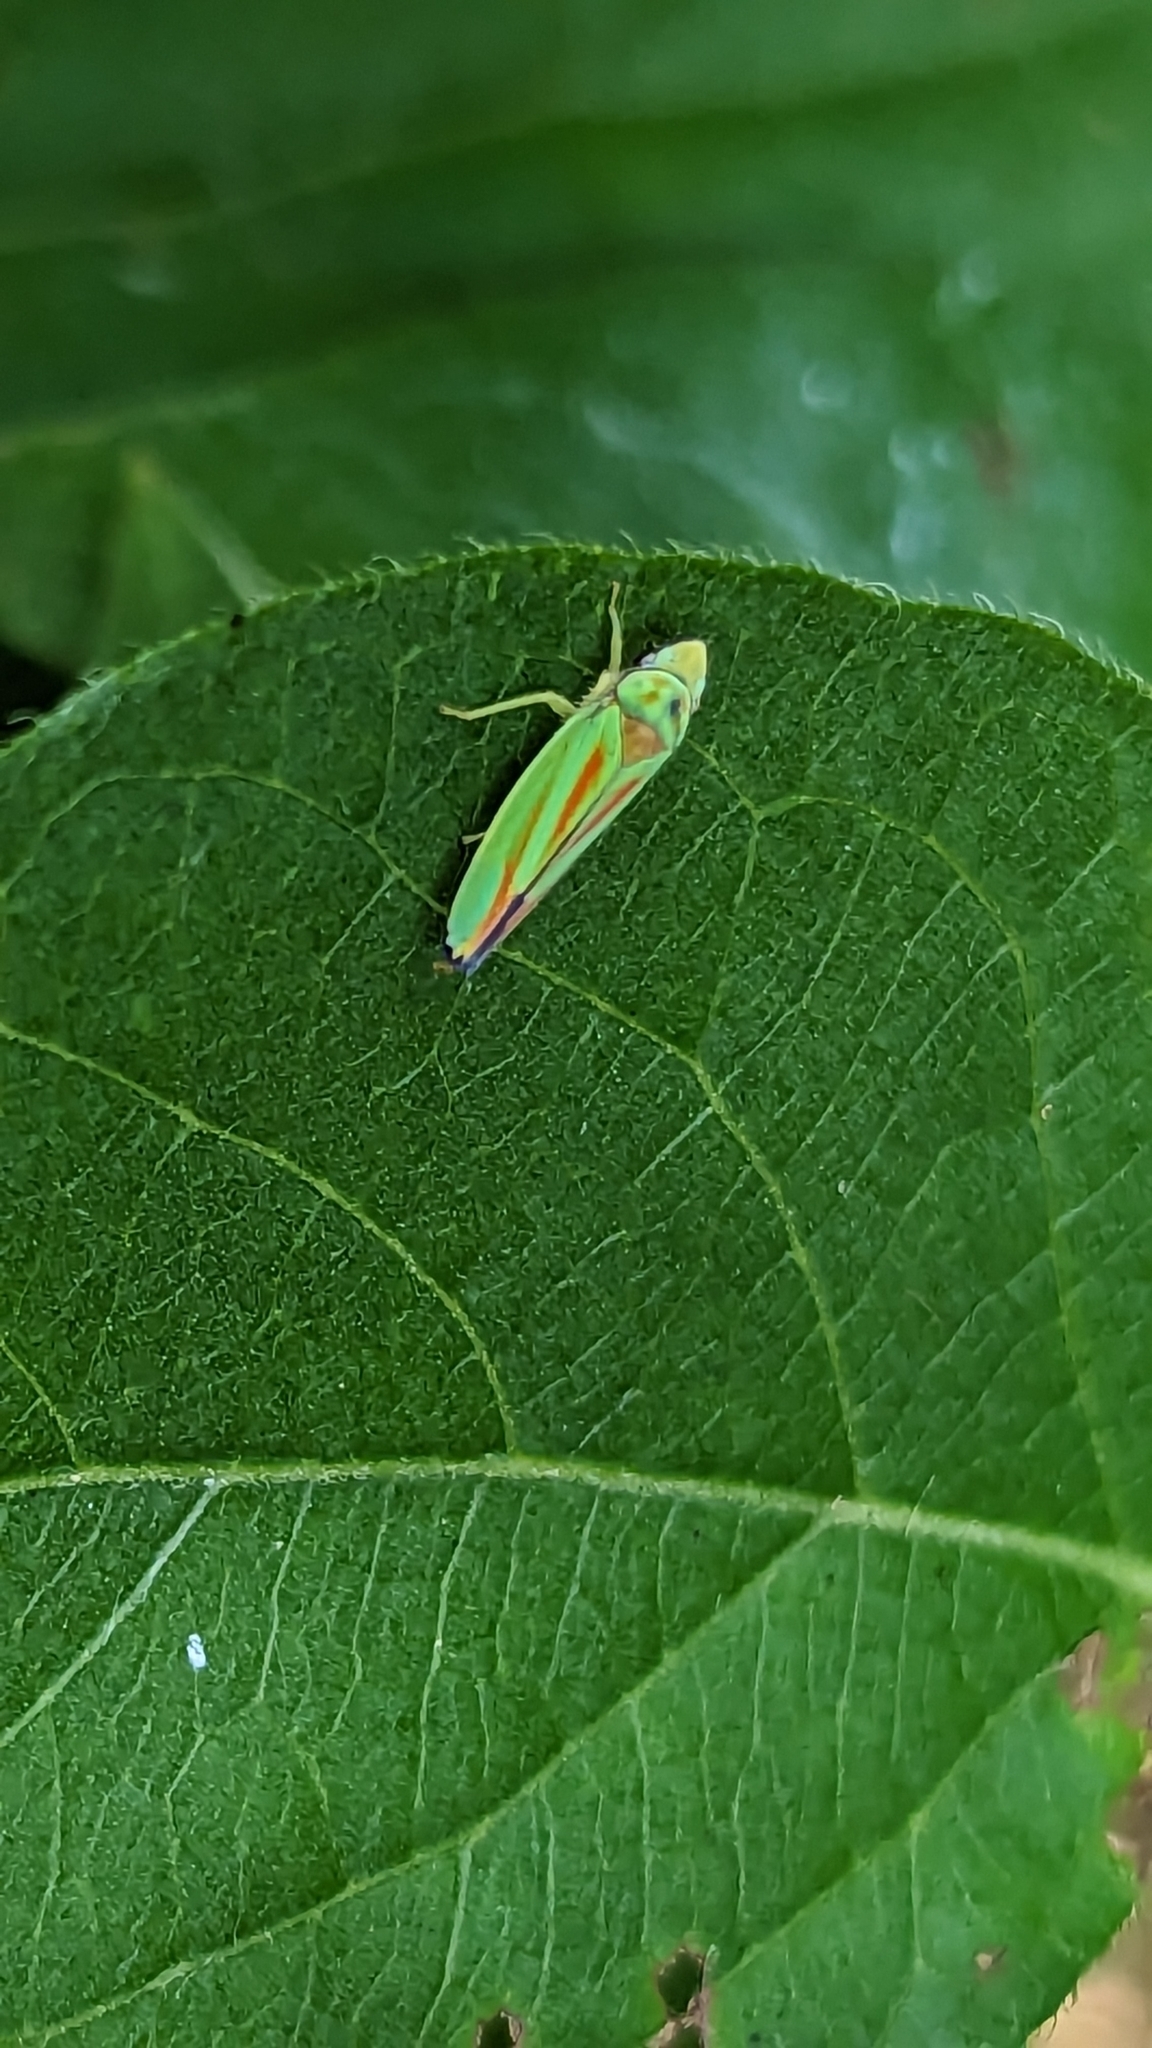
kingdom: Animalia
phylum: Arthropoda
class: Insecta
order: Hemiptera
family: Cicadellidae
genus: Graphocephala
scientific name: Graphocephala fennahi
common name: Rhododendron leafhopper
